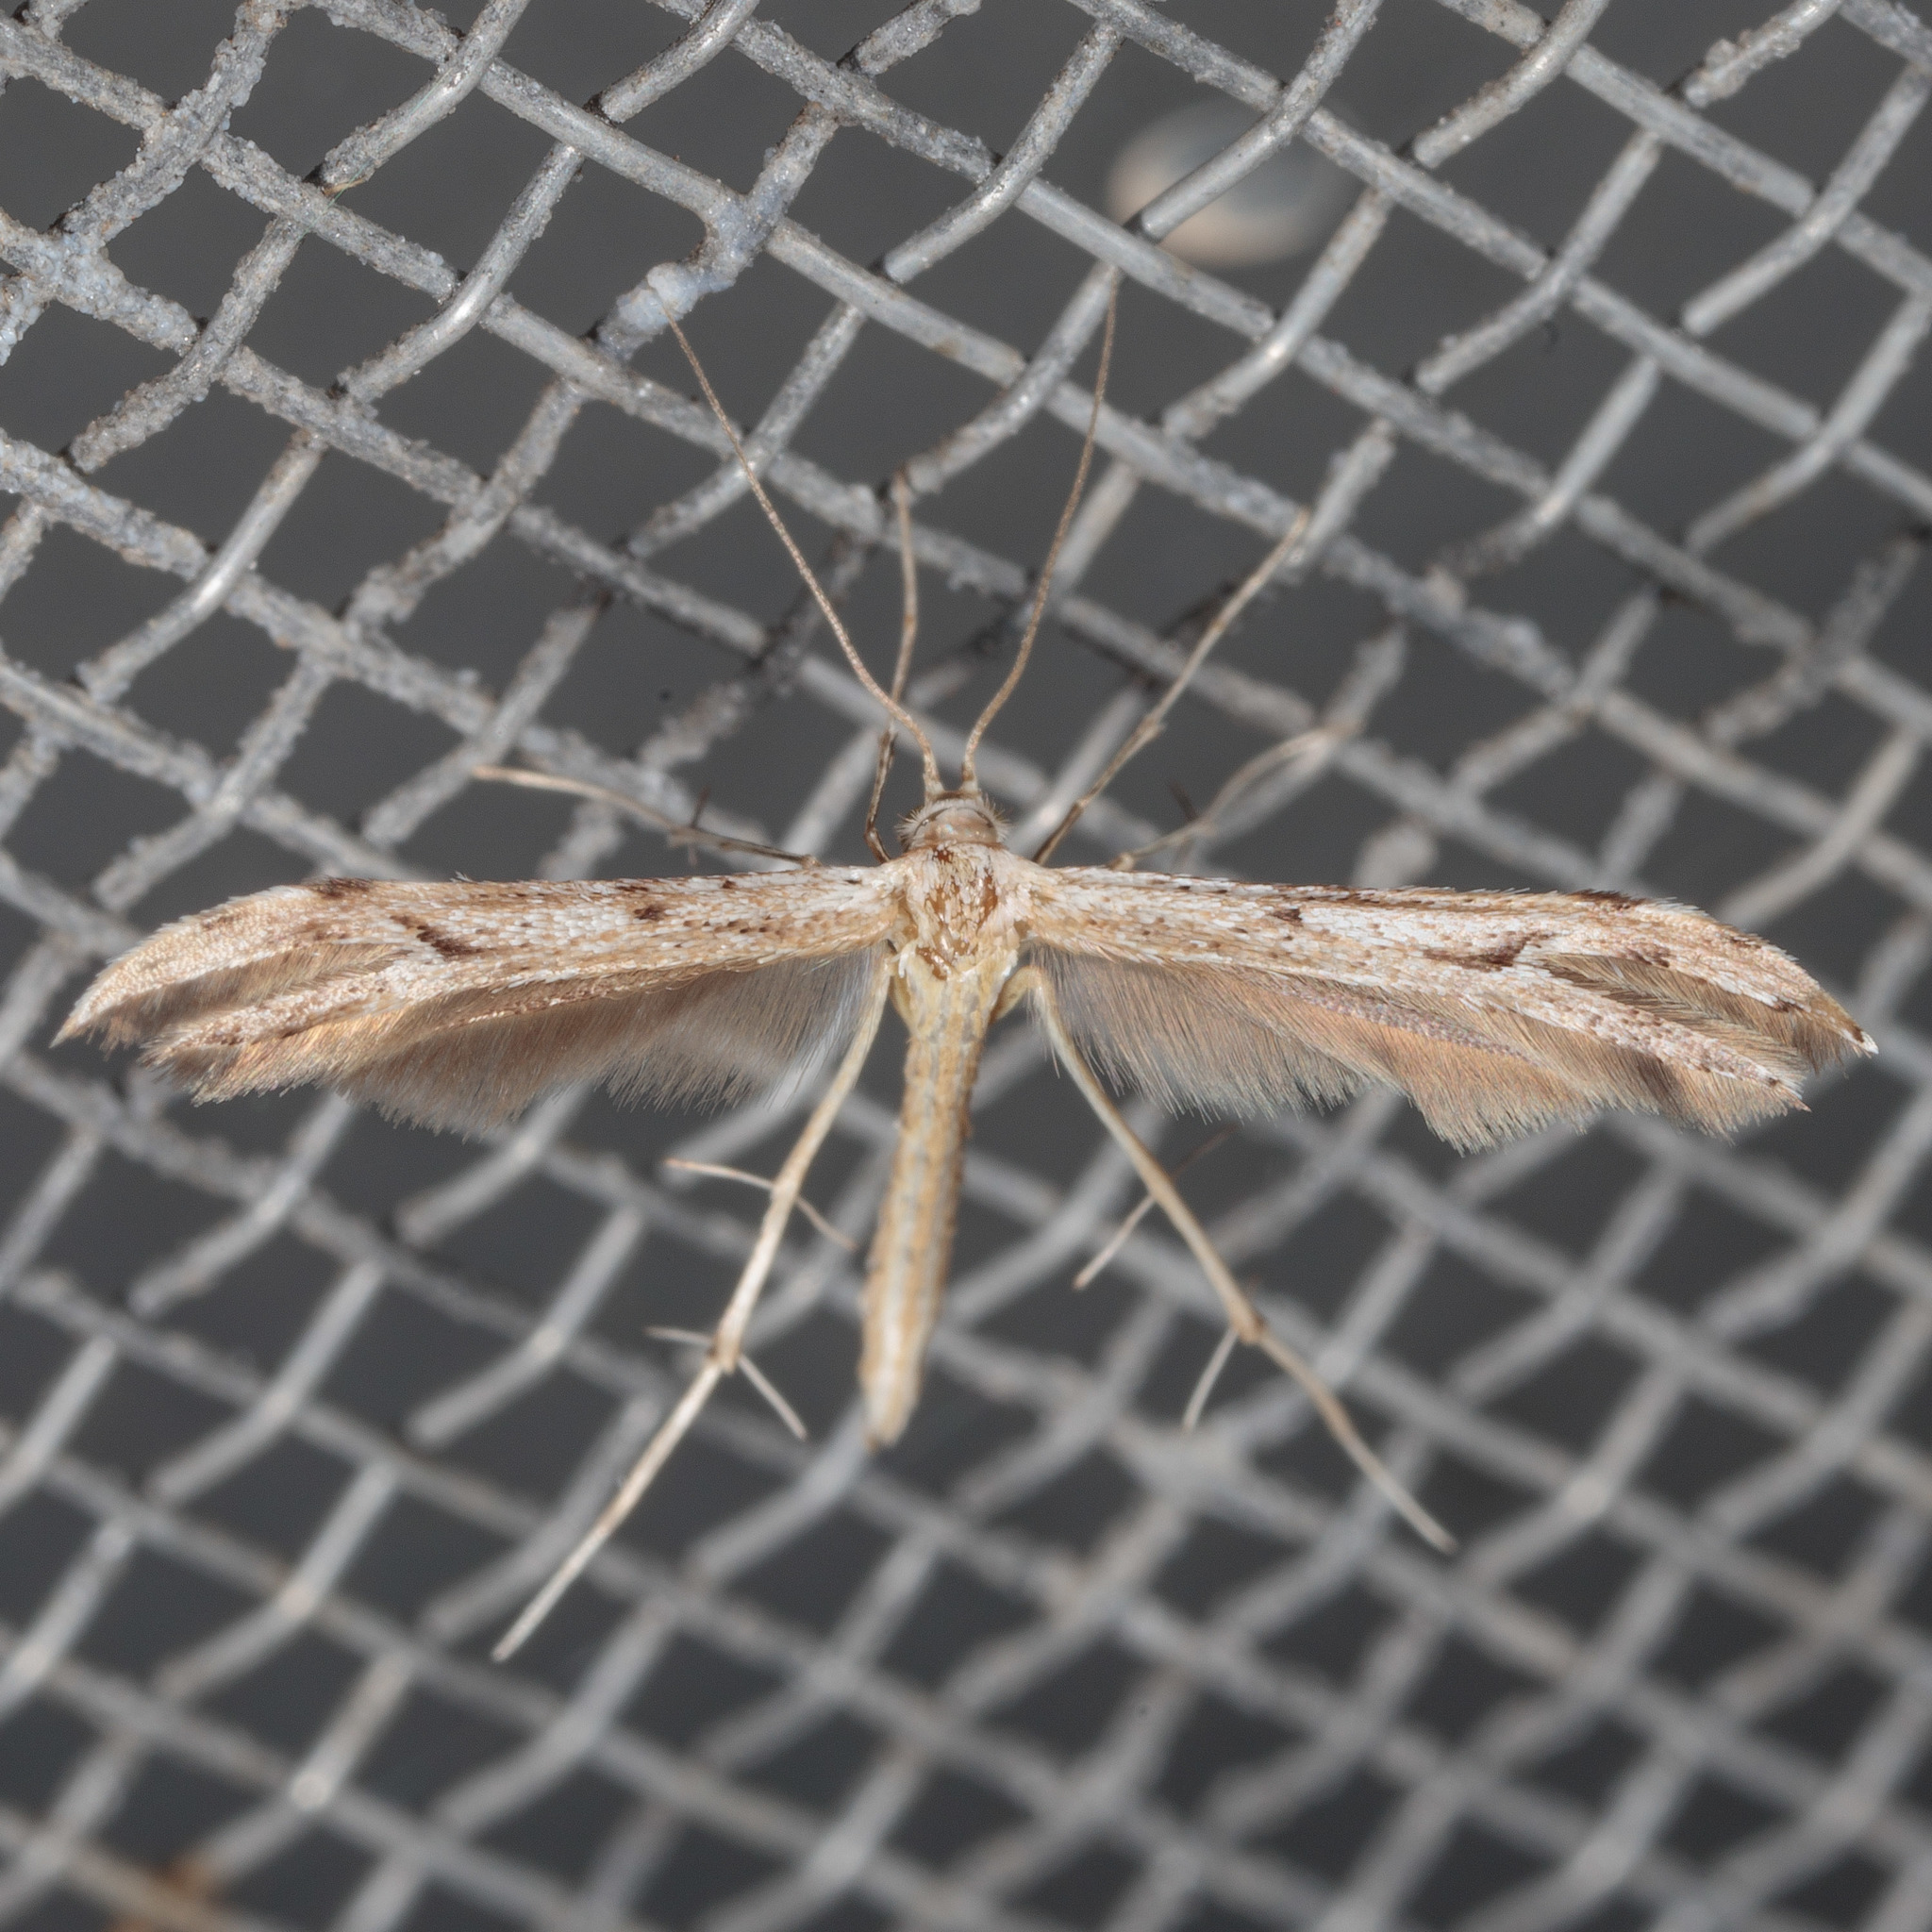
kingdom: Animalia
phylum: Arthropoda
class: Insecta
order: Lepidoptera
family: Pterophoridae
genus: Pselnophorus
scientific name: Pselnophorus belfragei
